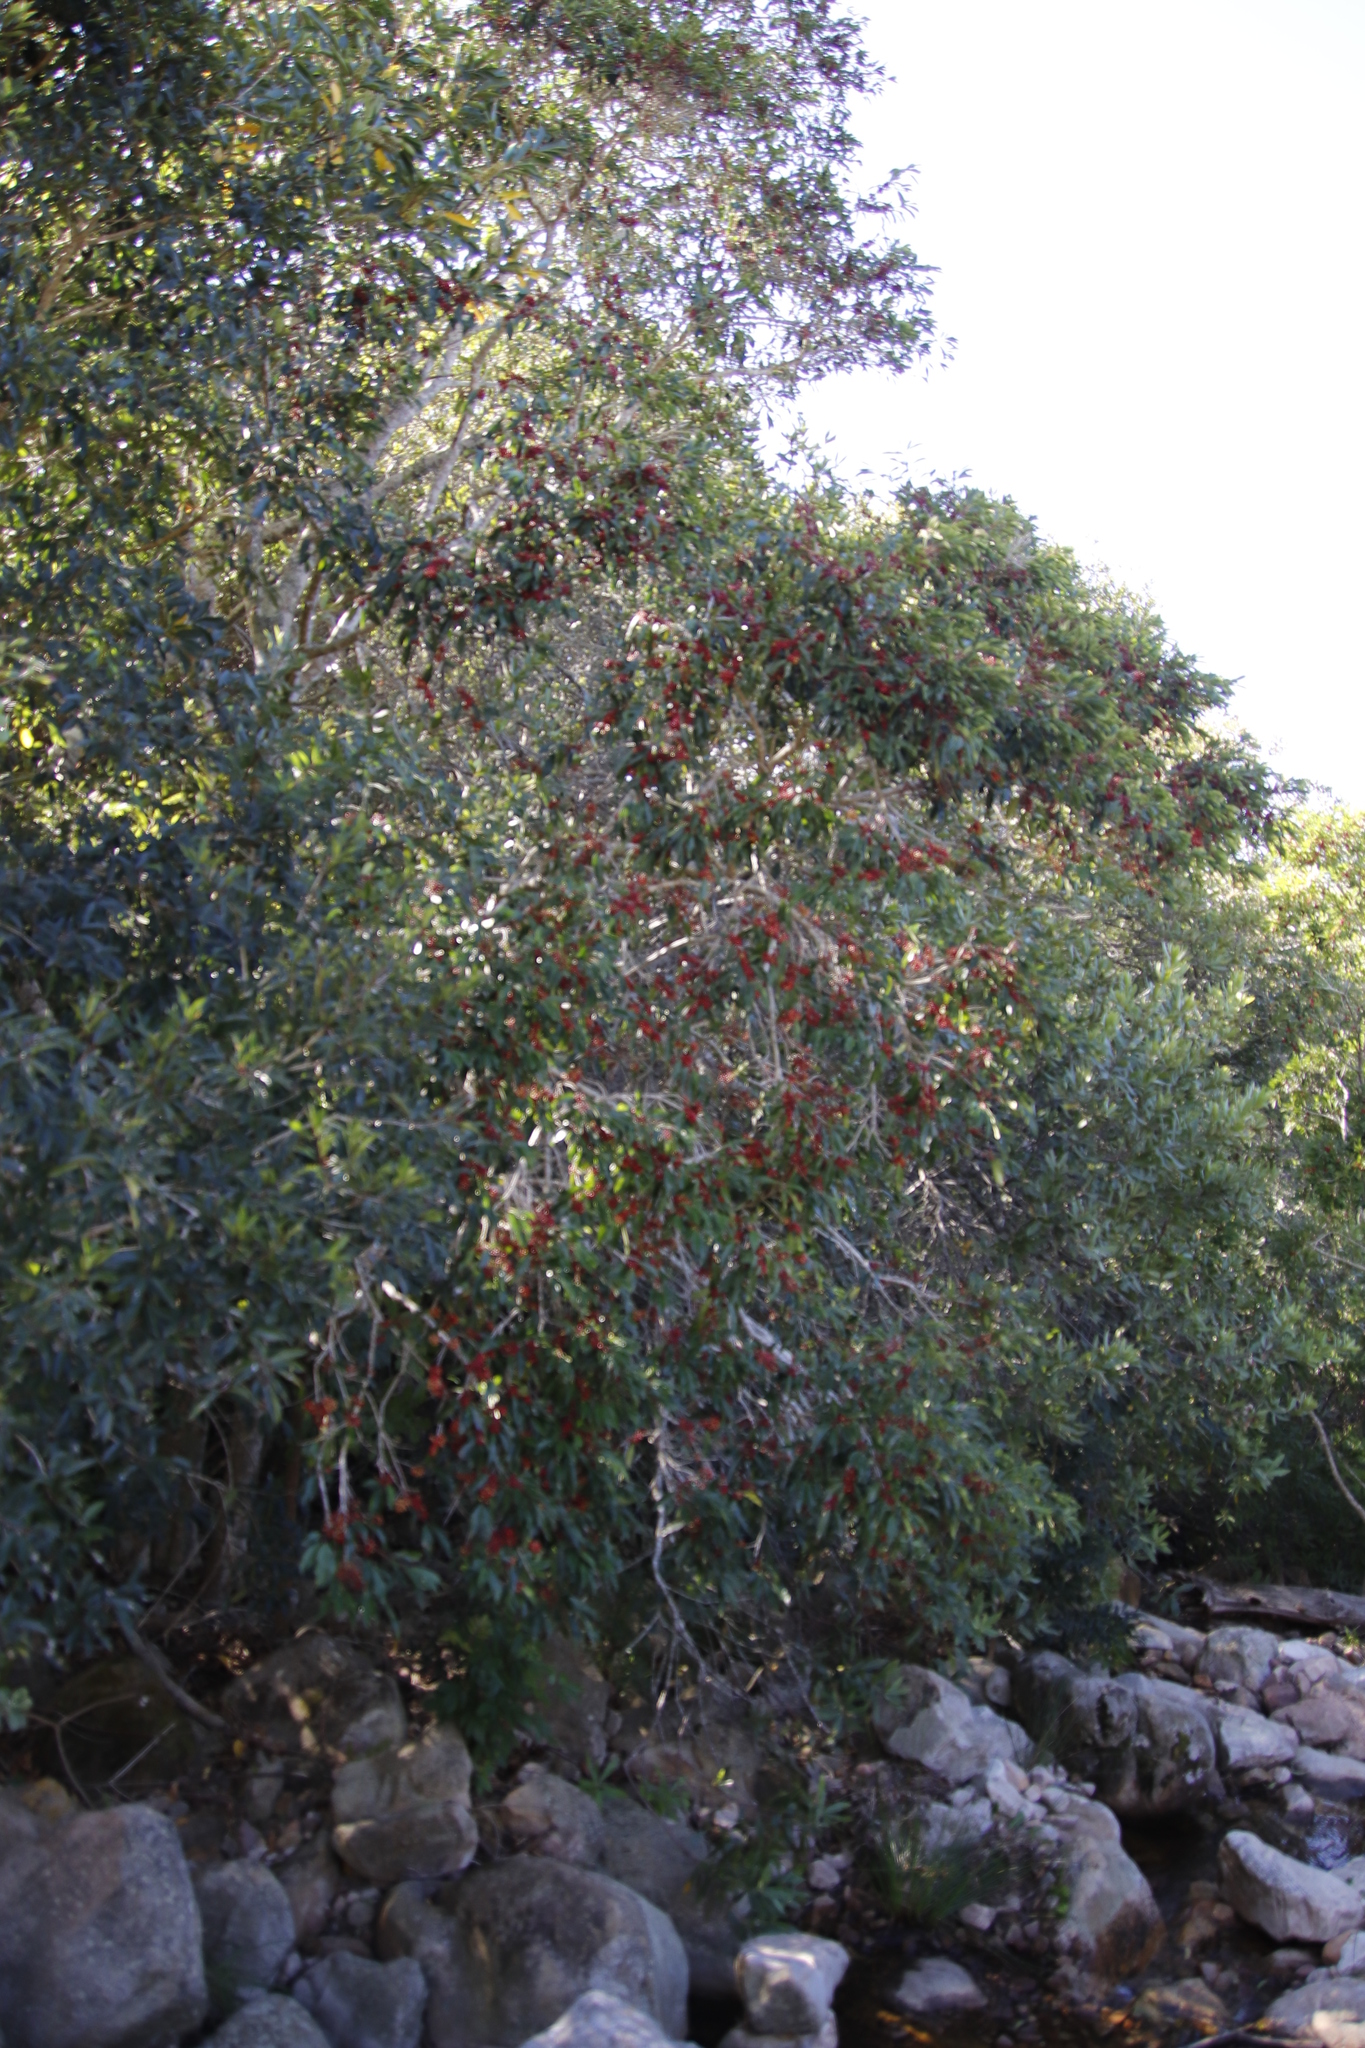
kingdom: Plantae
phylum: Tracheophyta
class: Magnoliopsida
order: Aquifoliales
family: Aquifoliaceae
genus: Ilex
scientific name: Ilex mitis
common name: African holly
